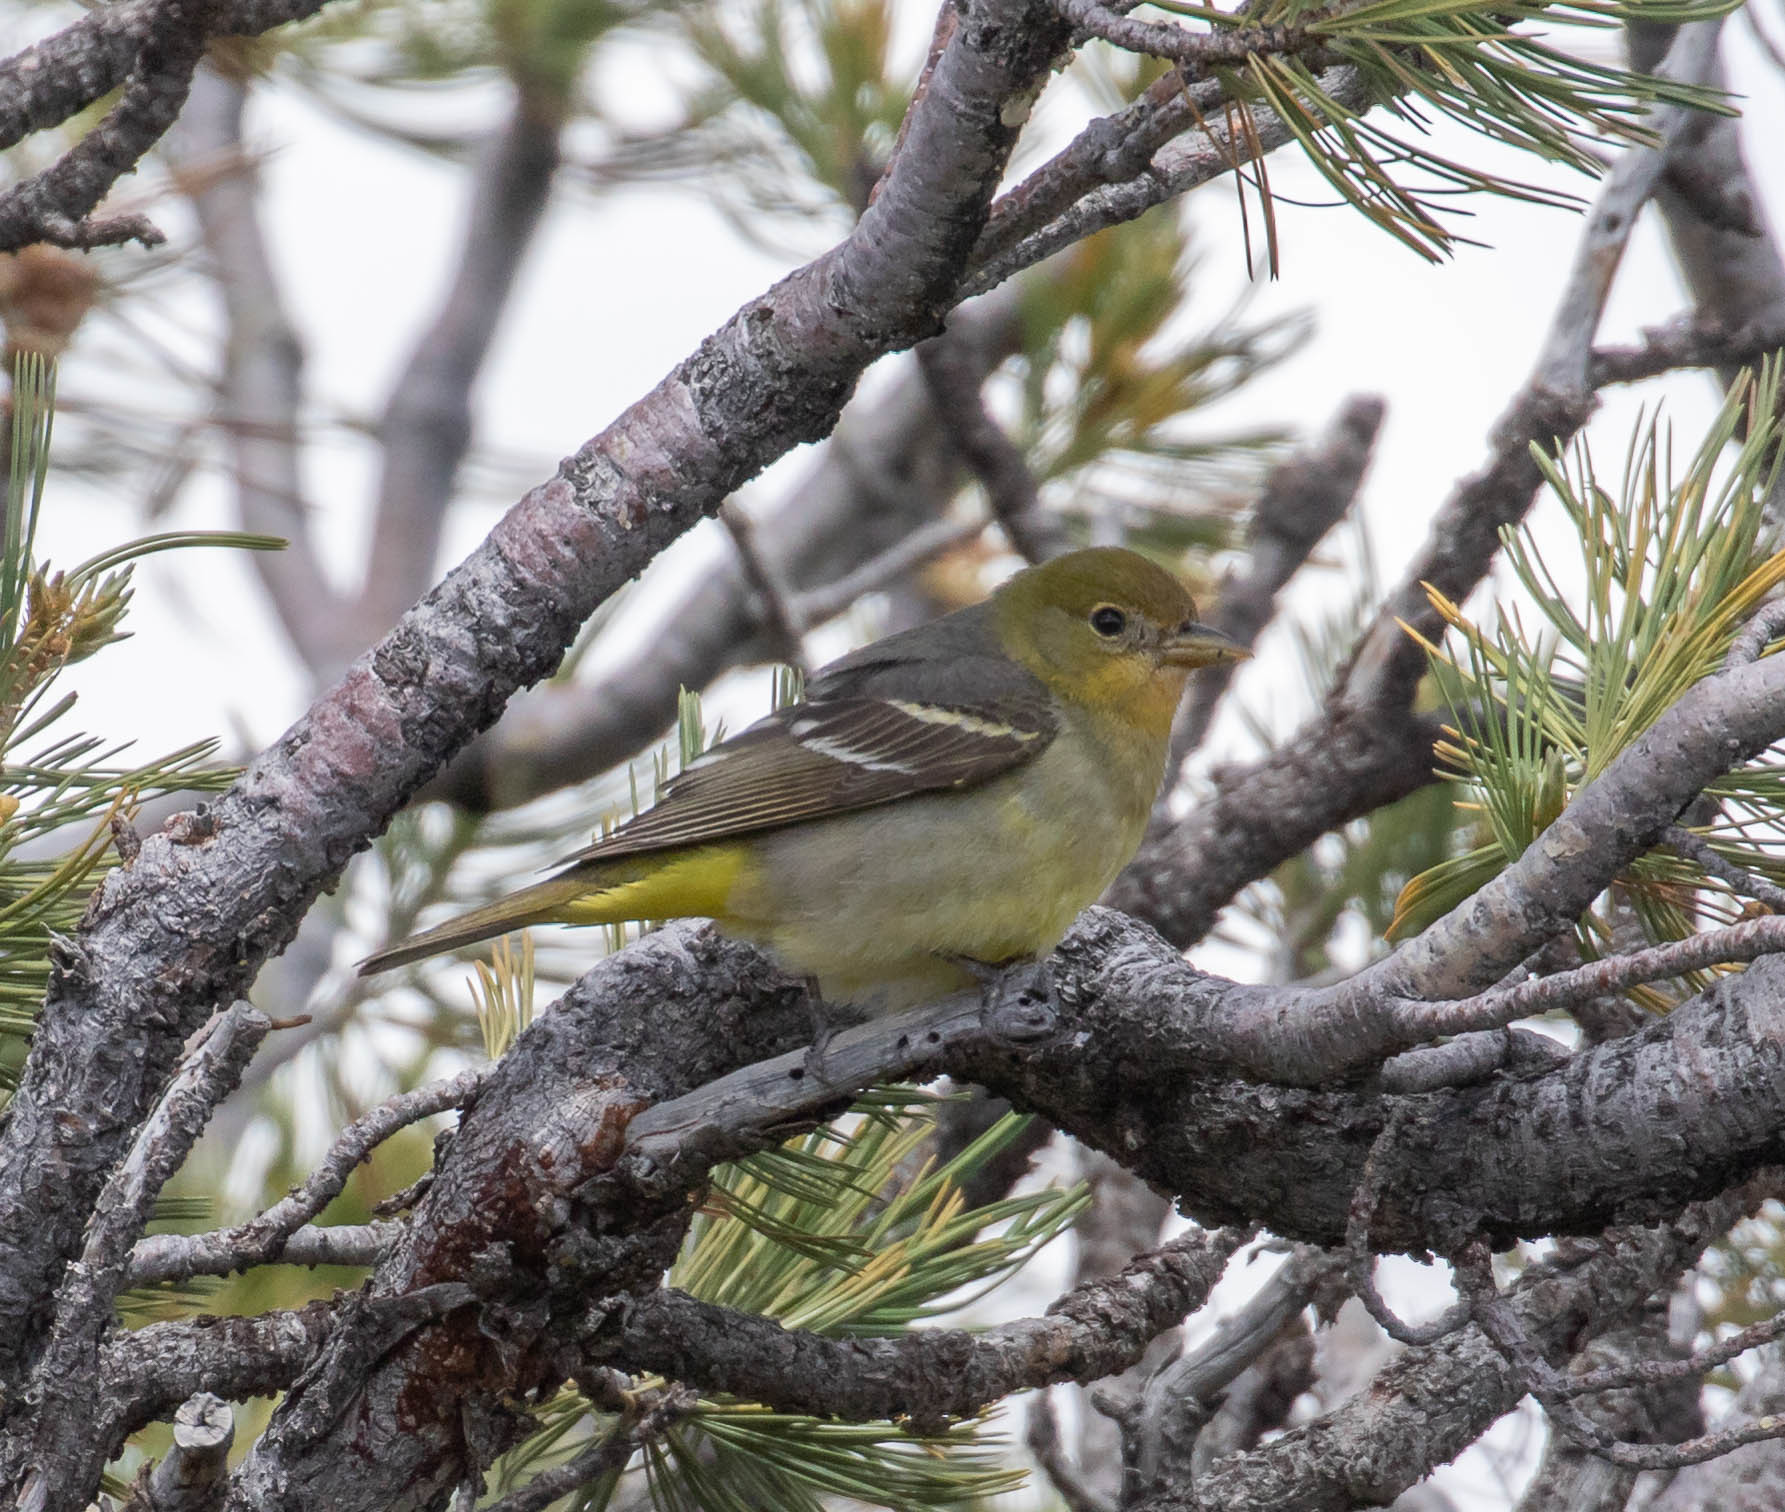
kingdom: Animalia
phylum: Chordata
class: Aves
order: Passeriformes
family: Cardinalidae
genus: Piranga
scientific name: Piranga ludoviciana
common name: Western tanager
